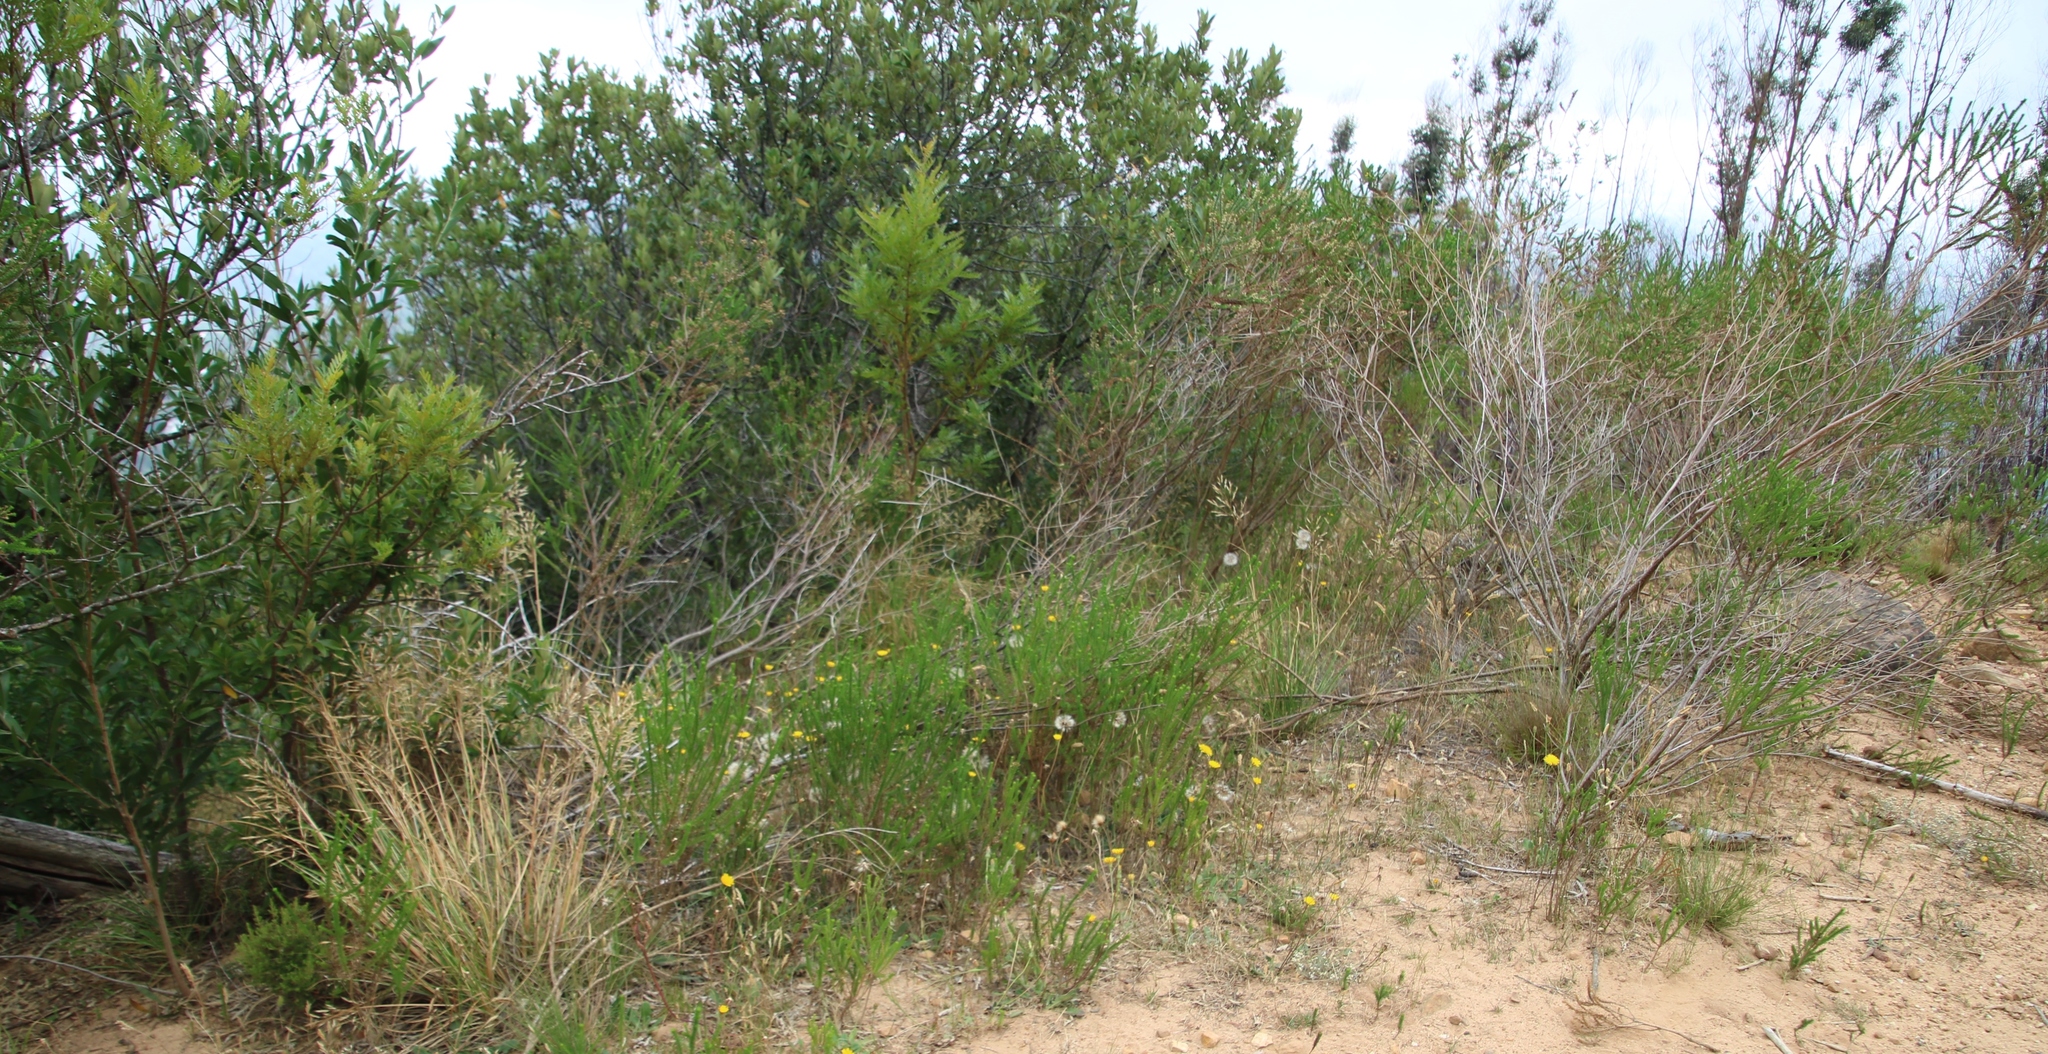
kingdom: Plantae
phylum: Tracheophyta
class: Magnoliopsida
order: Asterales
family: Asteraceae
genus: Hypochaeris
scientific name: Hypochaeris radicata
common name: Flatweed
